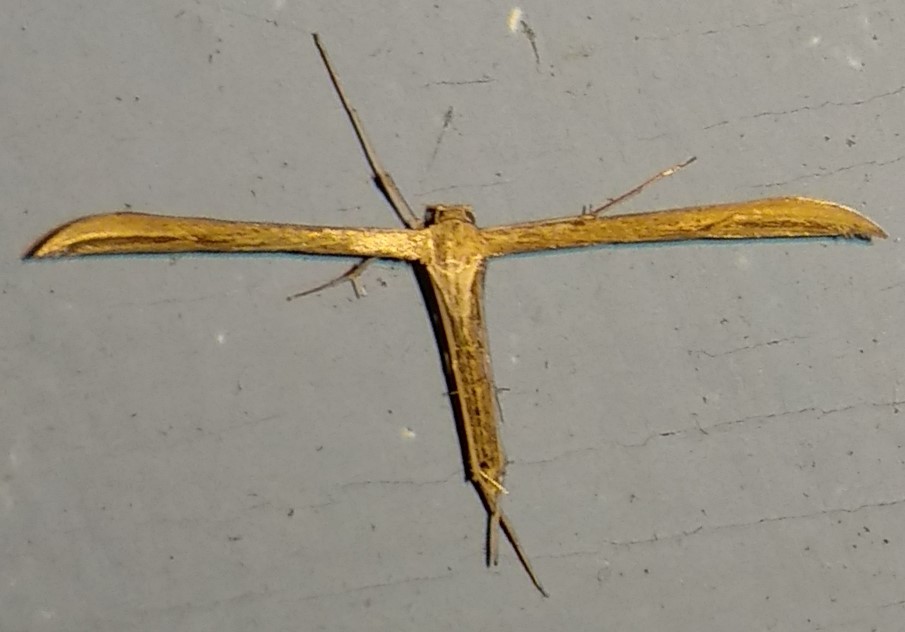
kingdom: Animalia
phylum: Arthropoda
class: Insecta
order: Lepidoptera
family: Pterophoridae
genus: Emmelina
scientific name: Emmelina monodactyla
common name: Common plume
